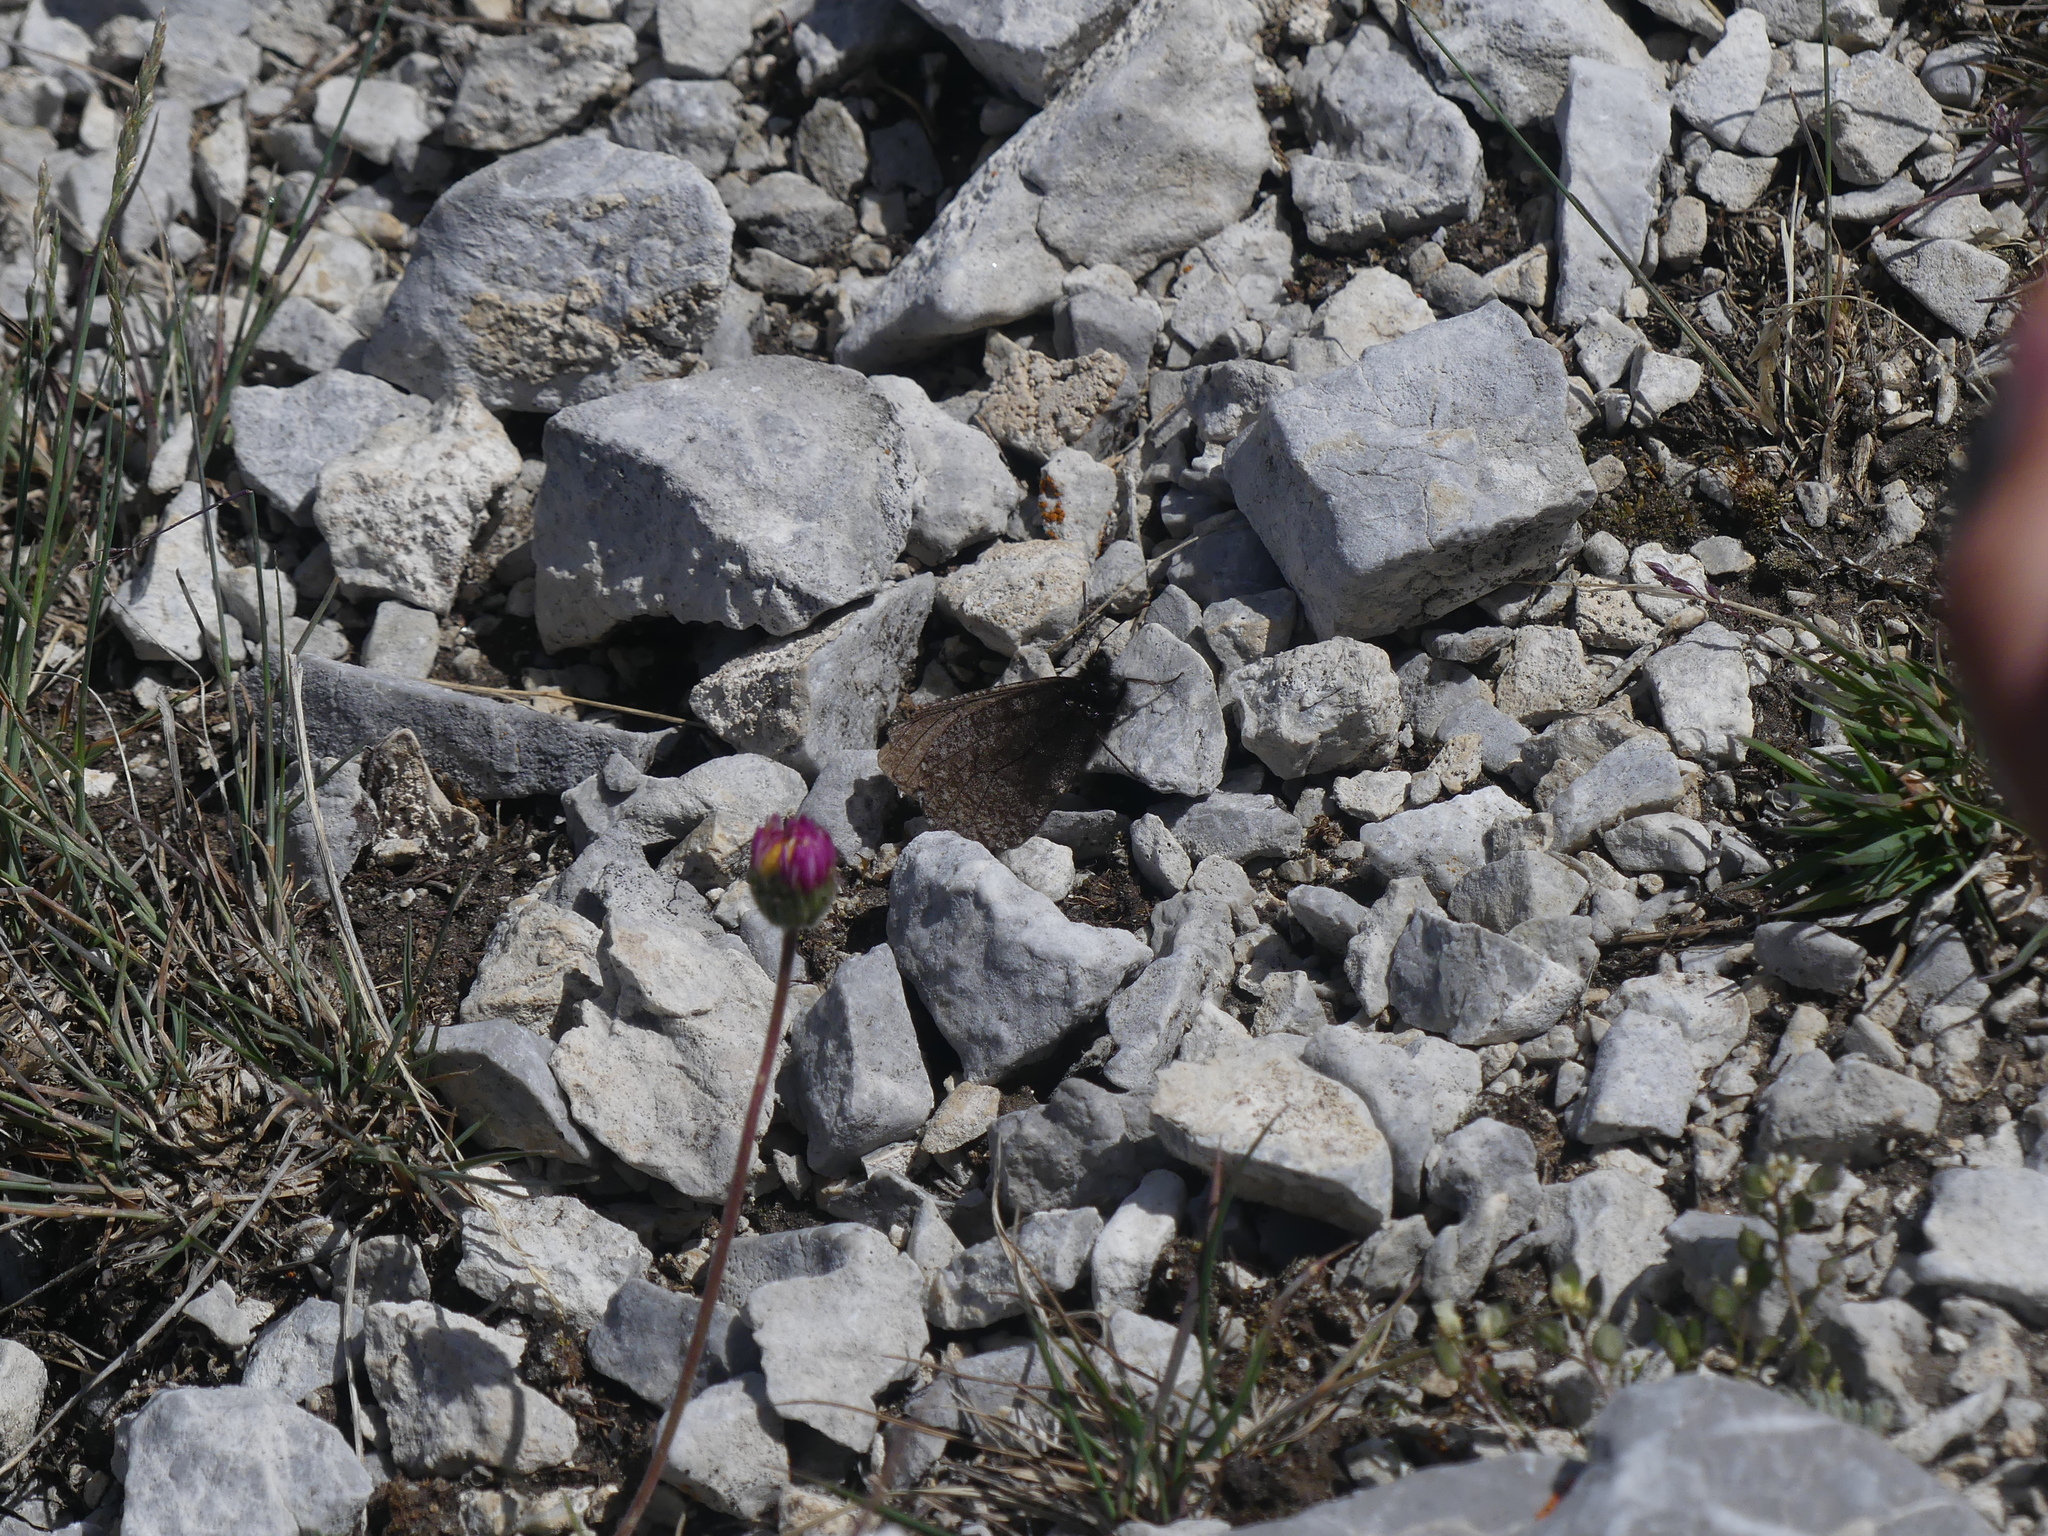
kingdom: Animalia
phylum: Arthropoda
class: Insecta
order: Lepidoptera
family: Nymphalidae
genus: Oeneis
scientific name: Oeneis melissa
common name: Melissa arctic
